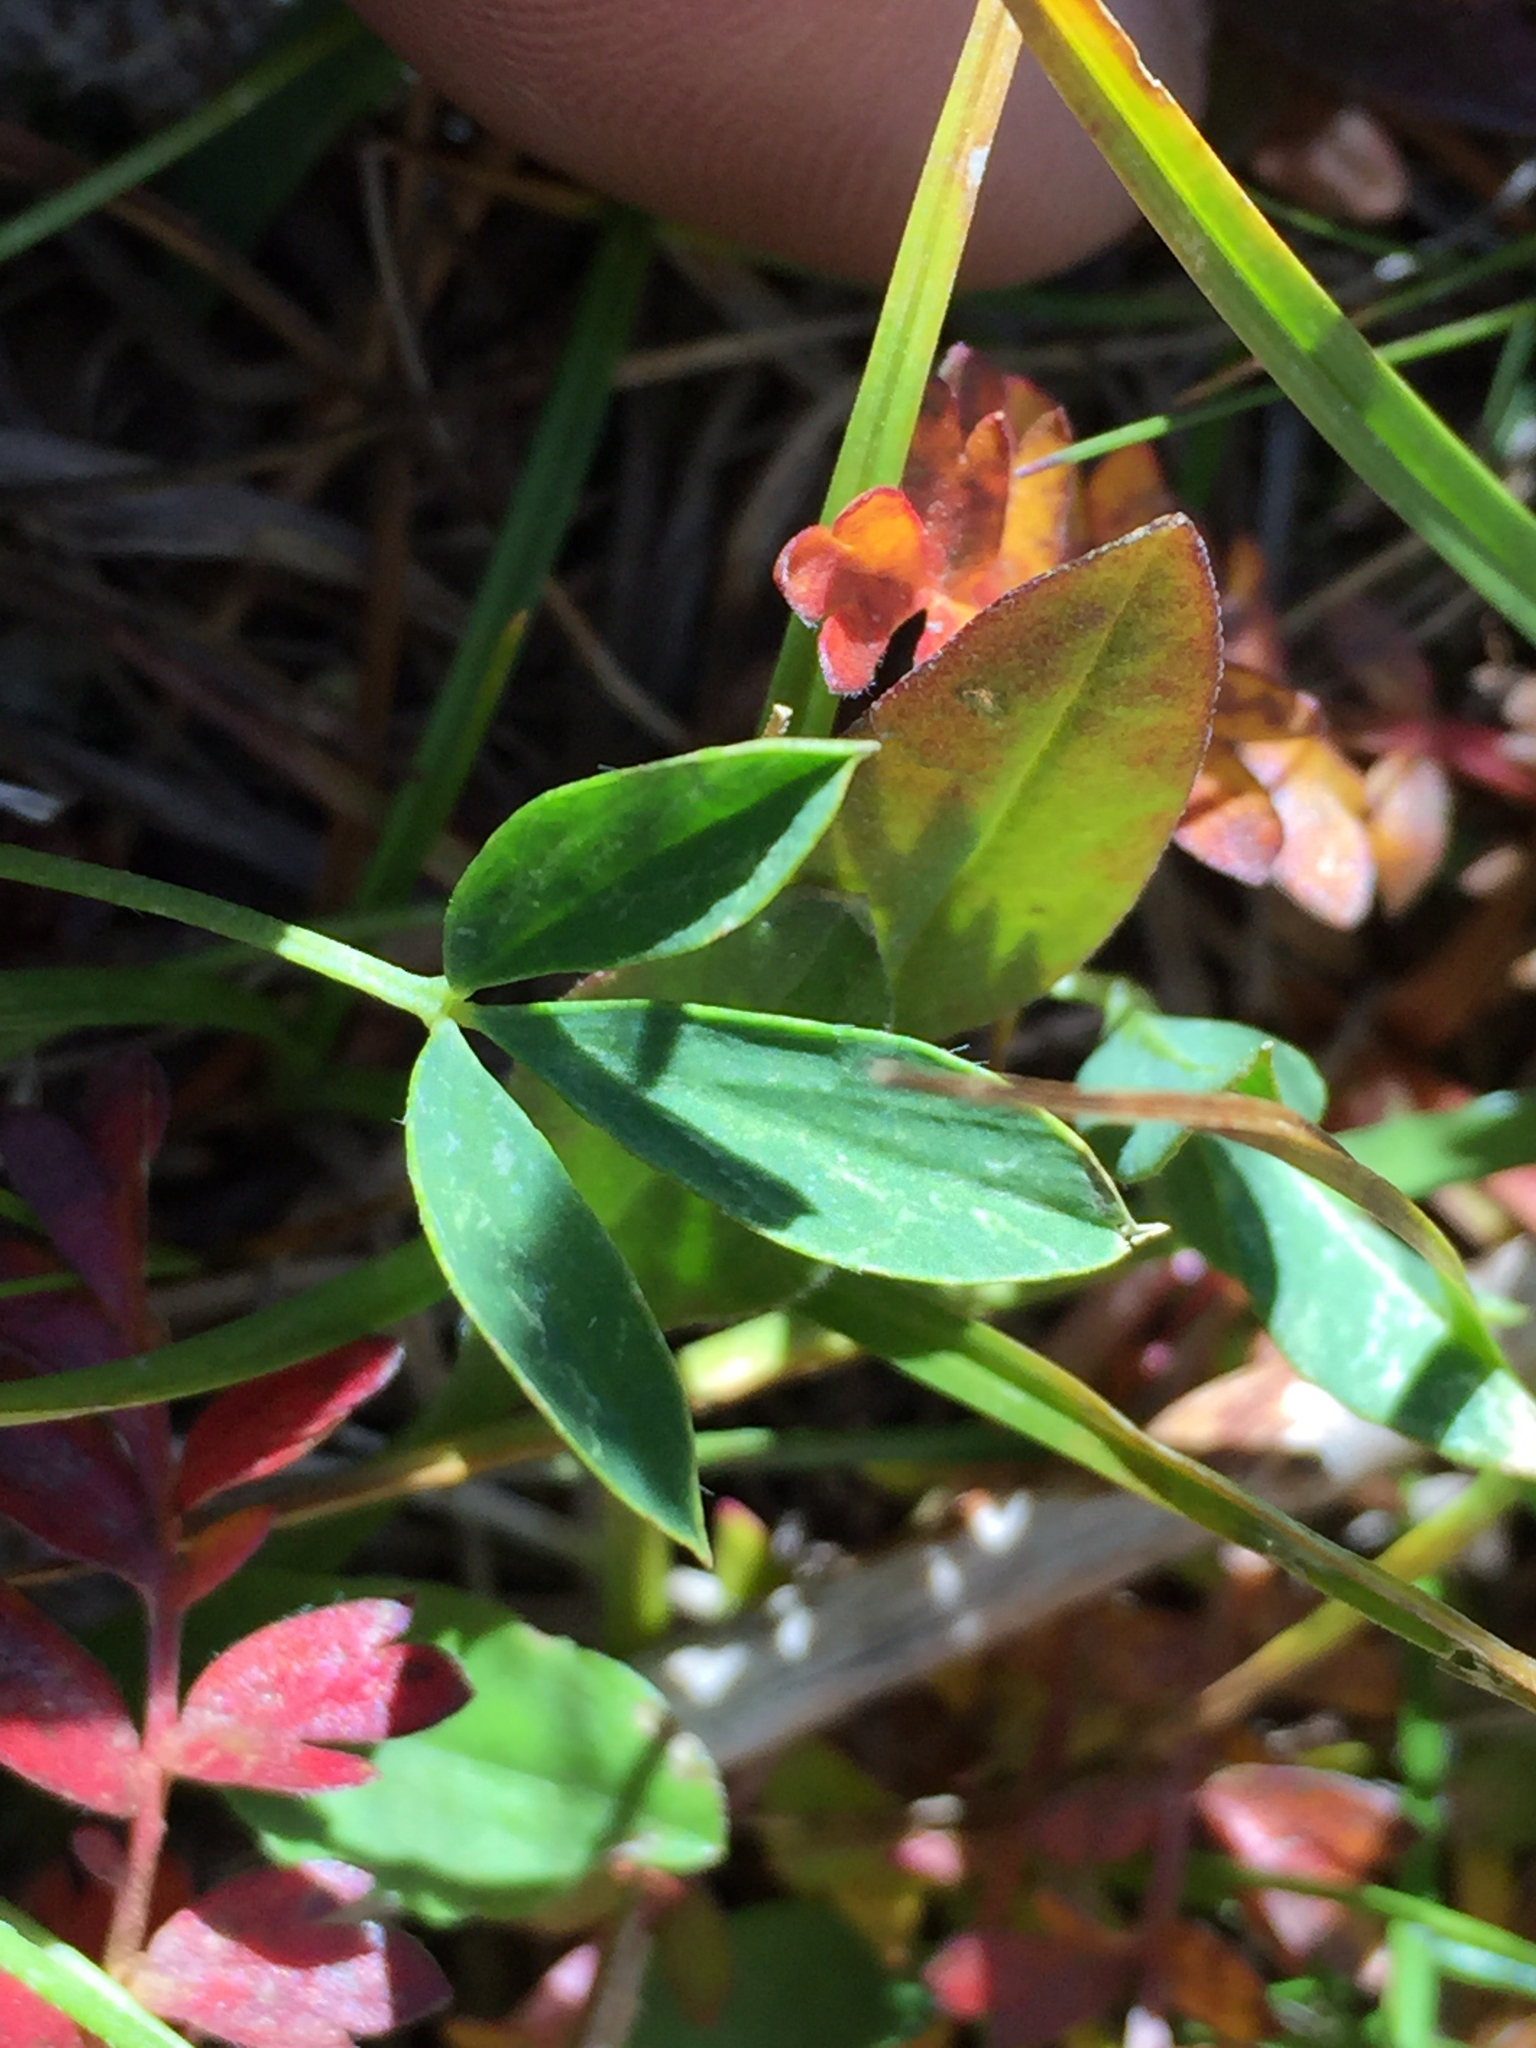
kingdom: Plantae
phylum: Tracheophyta
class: Magnoliopsida
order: Fabales
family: Fabaceae
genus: Trifolium
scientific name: Trifolium longipes
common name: Long-stalk clover
